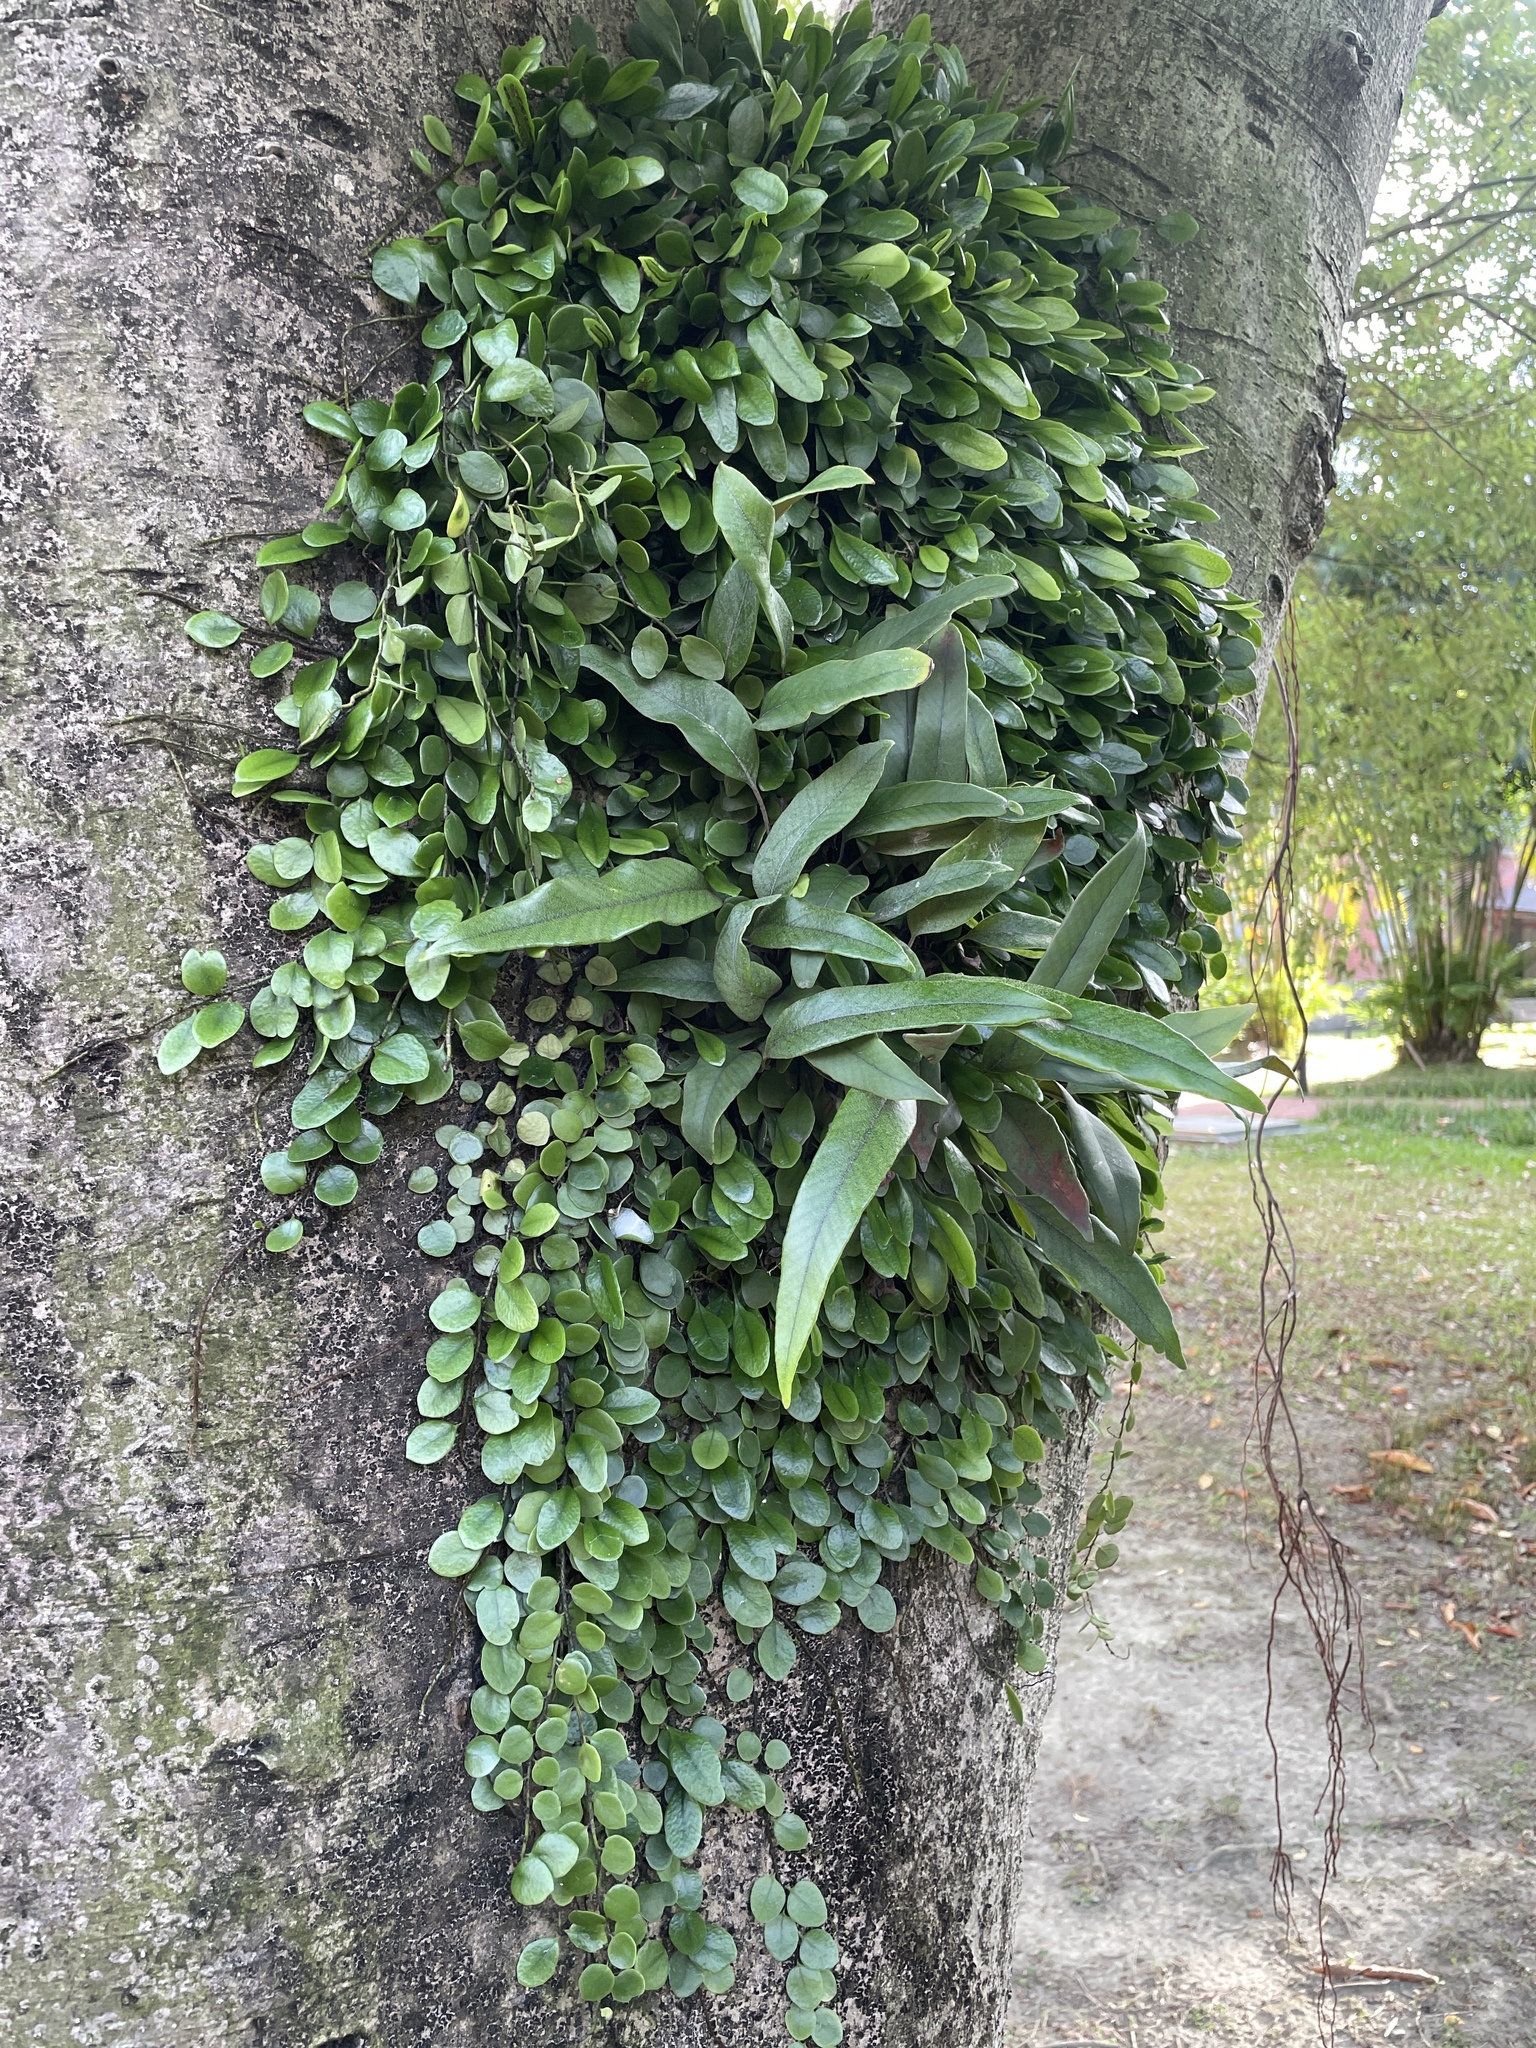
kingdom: Plantae
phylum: Tracheophyta
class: Polypodiopsida
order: Polypodiales
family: Polypodiaceae
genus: Lepisorus
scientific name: Lepisorus microphyllus
